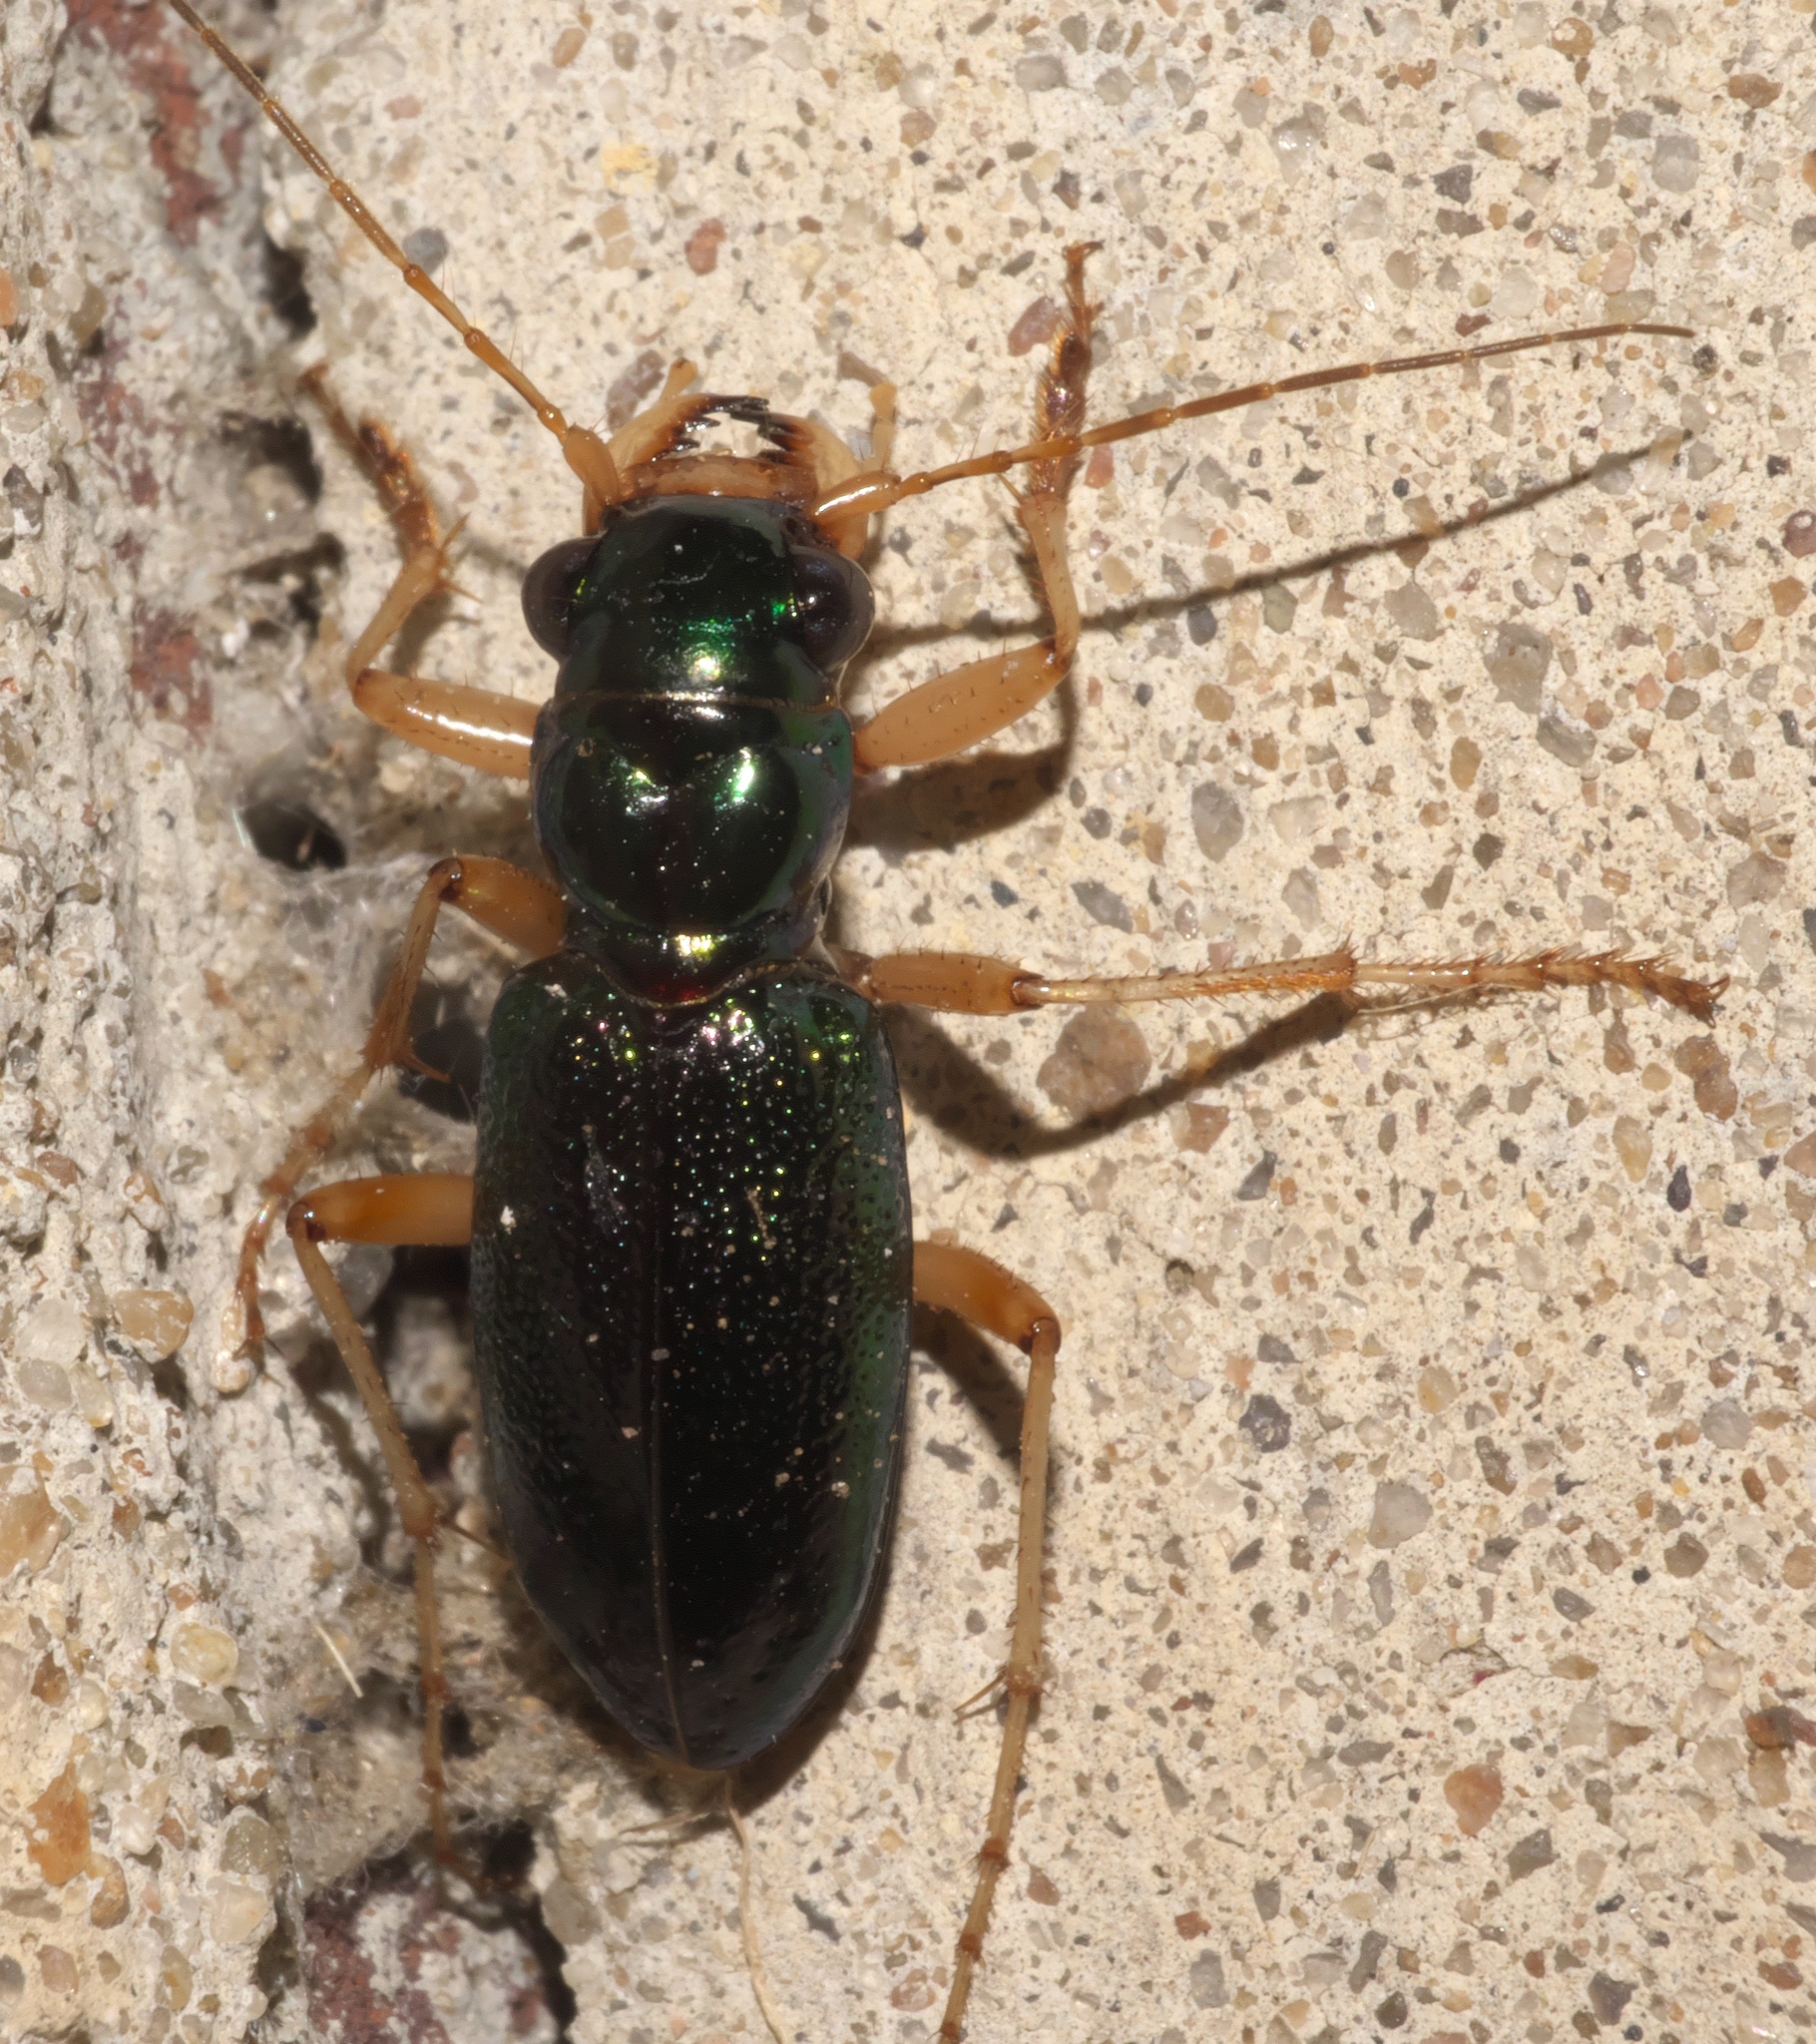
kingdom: Animalia
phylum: Arthropoda
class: Insecta
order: Coleoptera
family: Carabidae
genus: Tetracha
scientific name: Tetracha virginica
